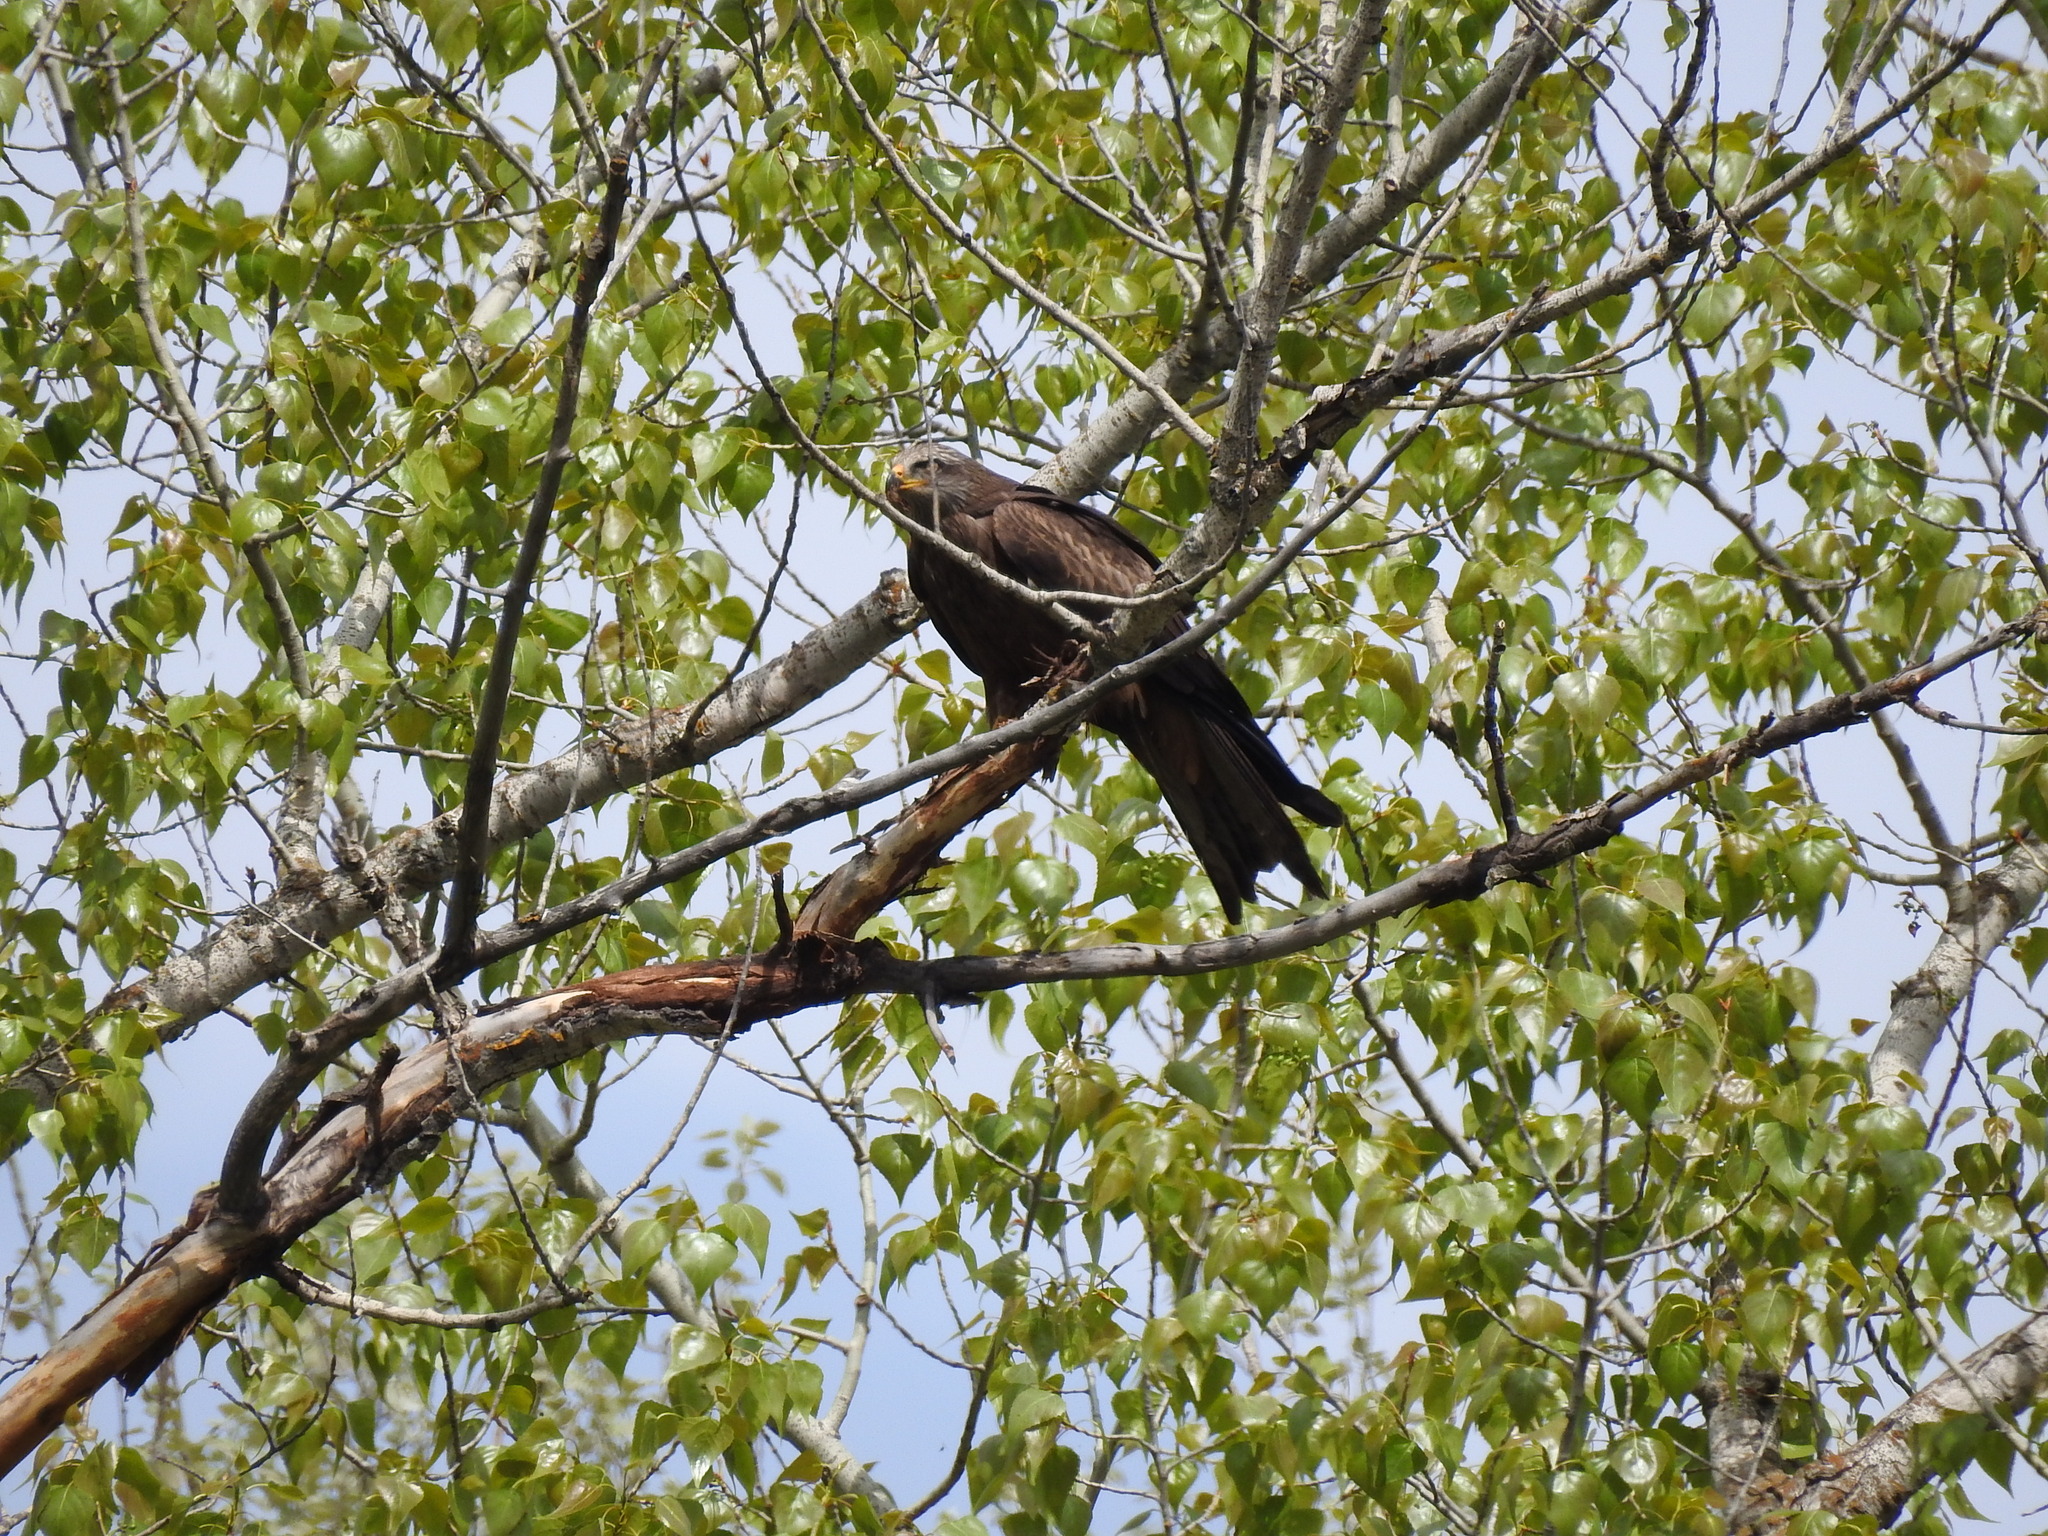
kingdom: Animalia
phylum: Chordata
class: Aves
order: Accipitriformes
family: Accipitridae
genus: Milvus
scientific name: Milvus migrans
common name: Black kite
